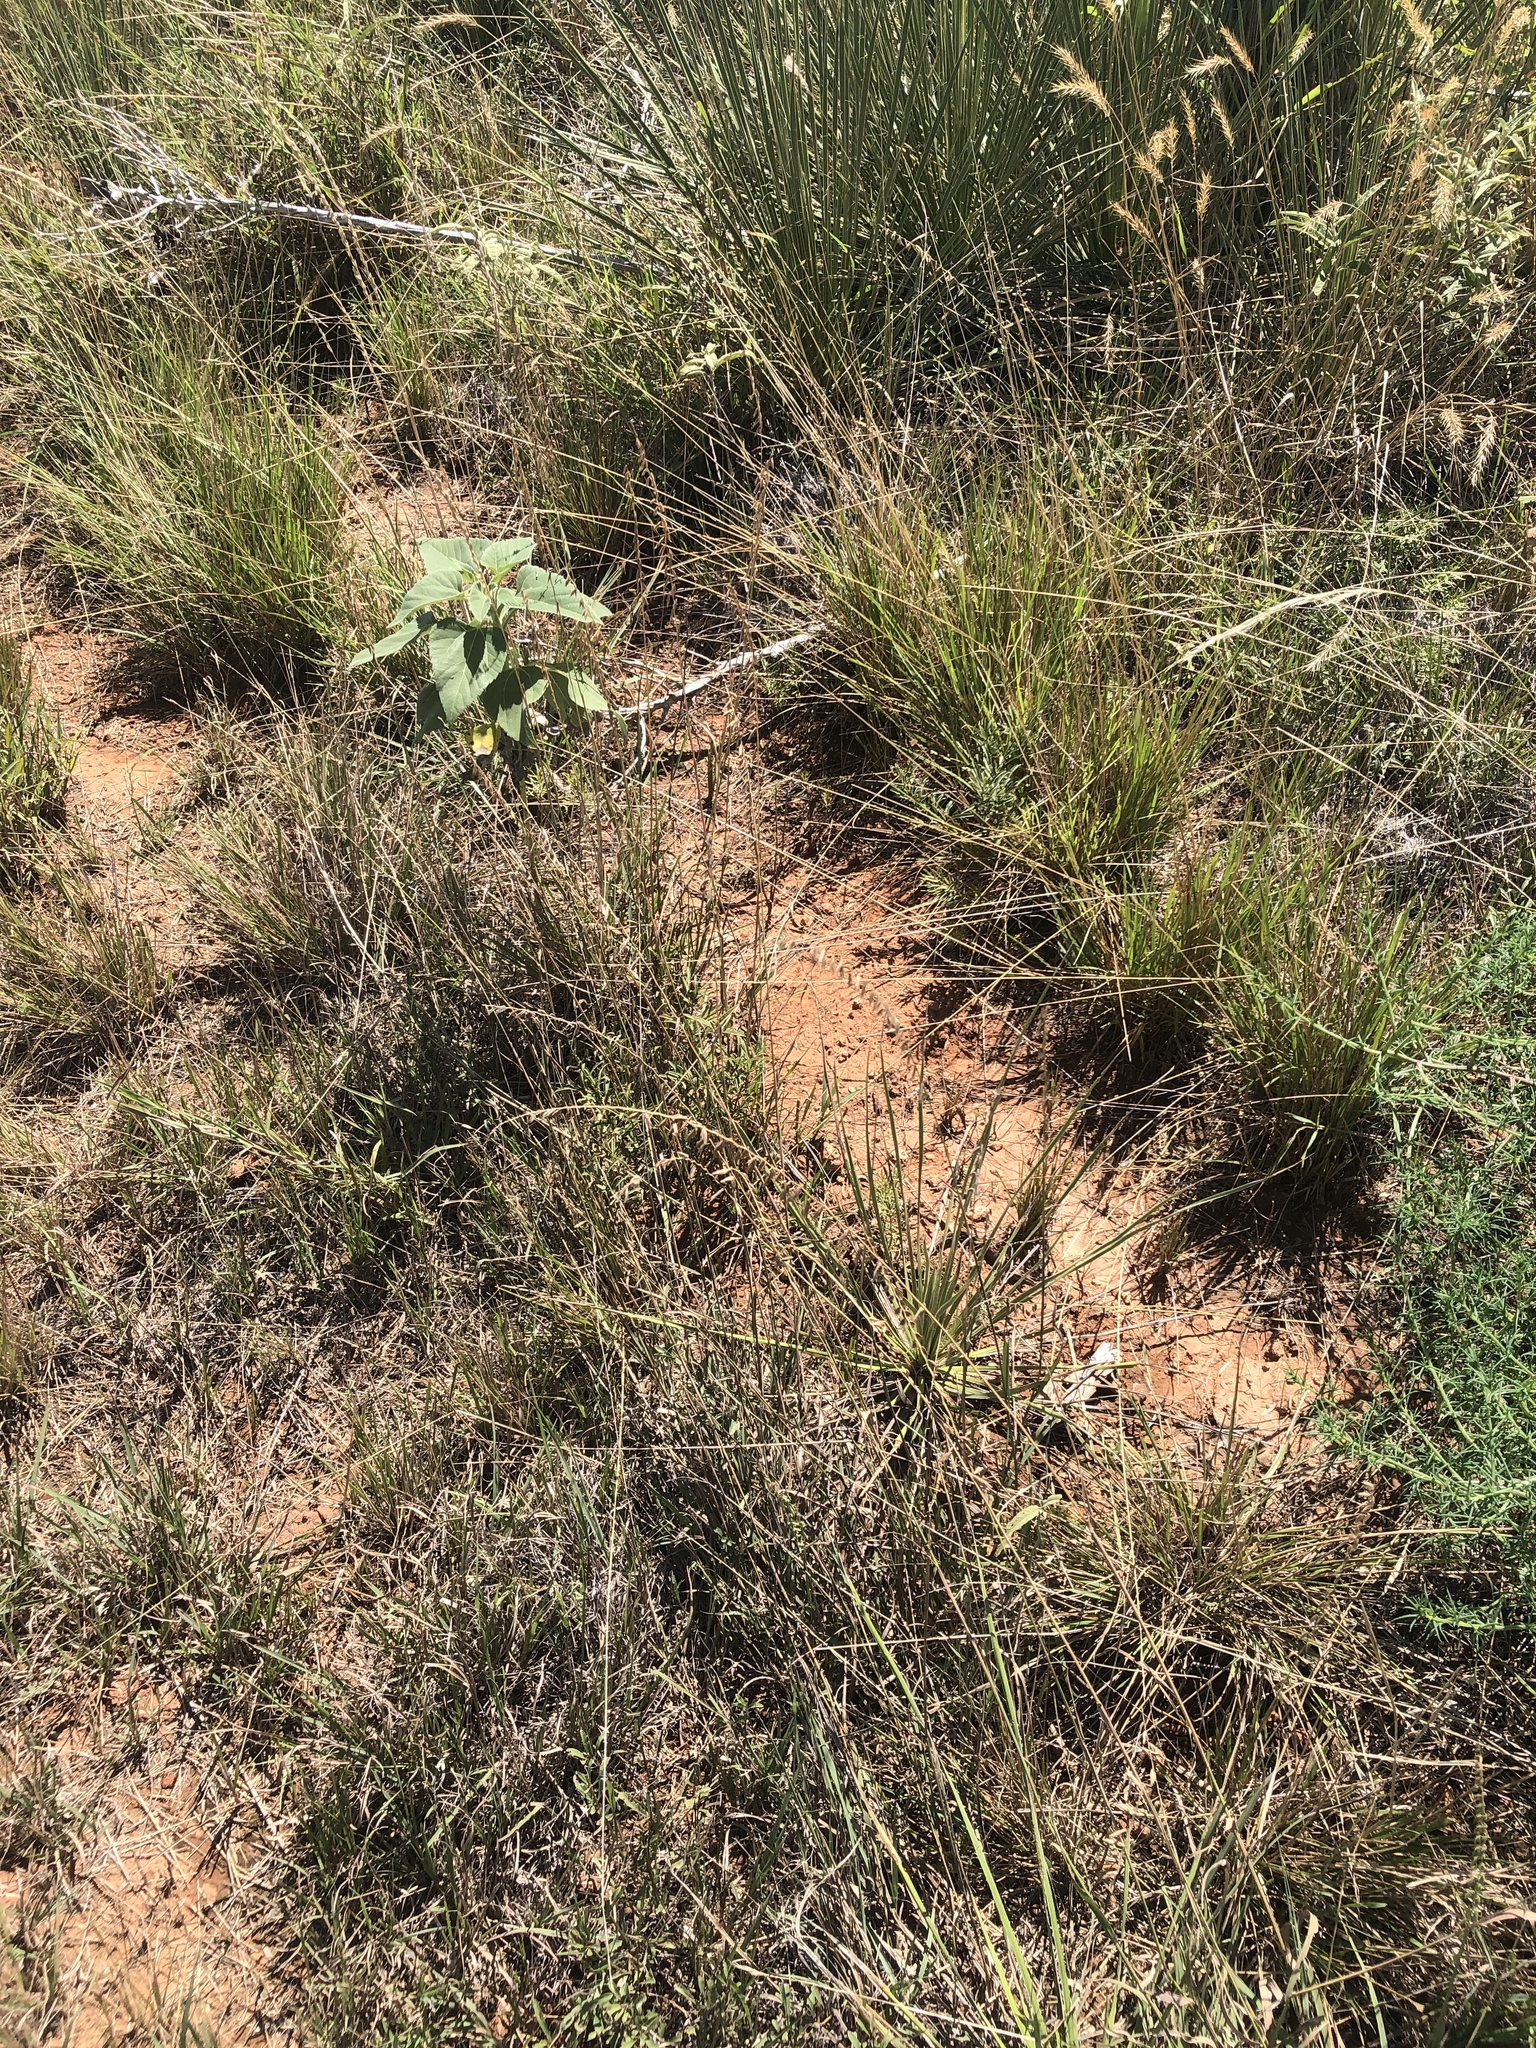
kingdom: Plantae
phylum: Tracheophyta
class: Liliopsida
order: Poales
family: Poaceae
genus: Bouteloua
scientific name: Bouteloua curtipendula
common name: Side-oats grama
